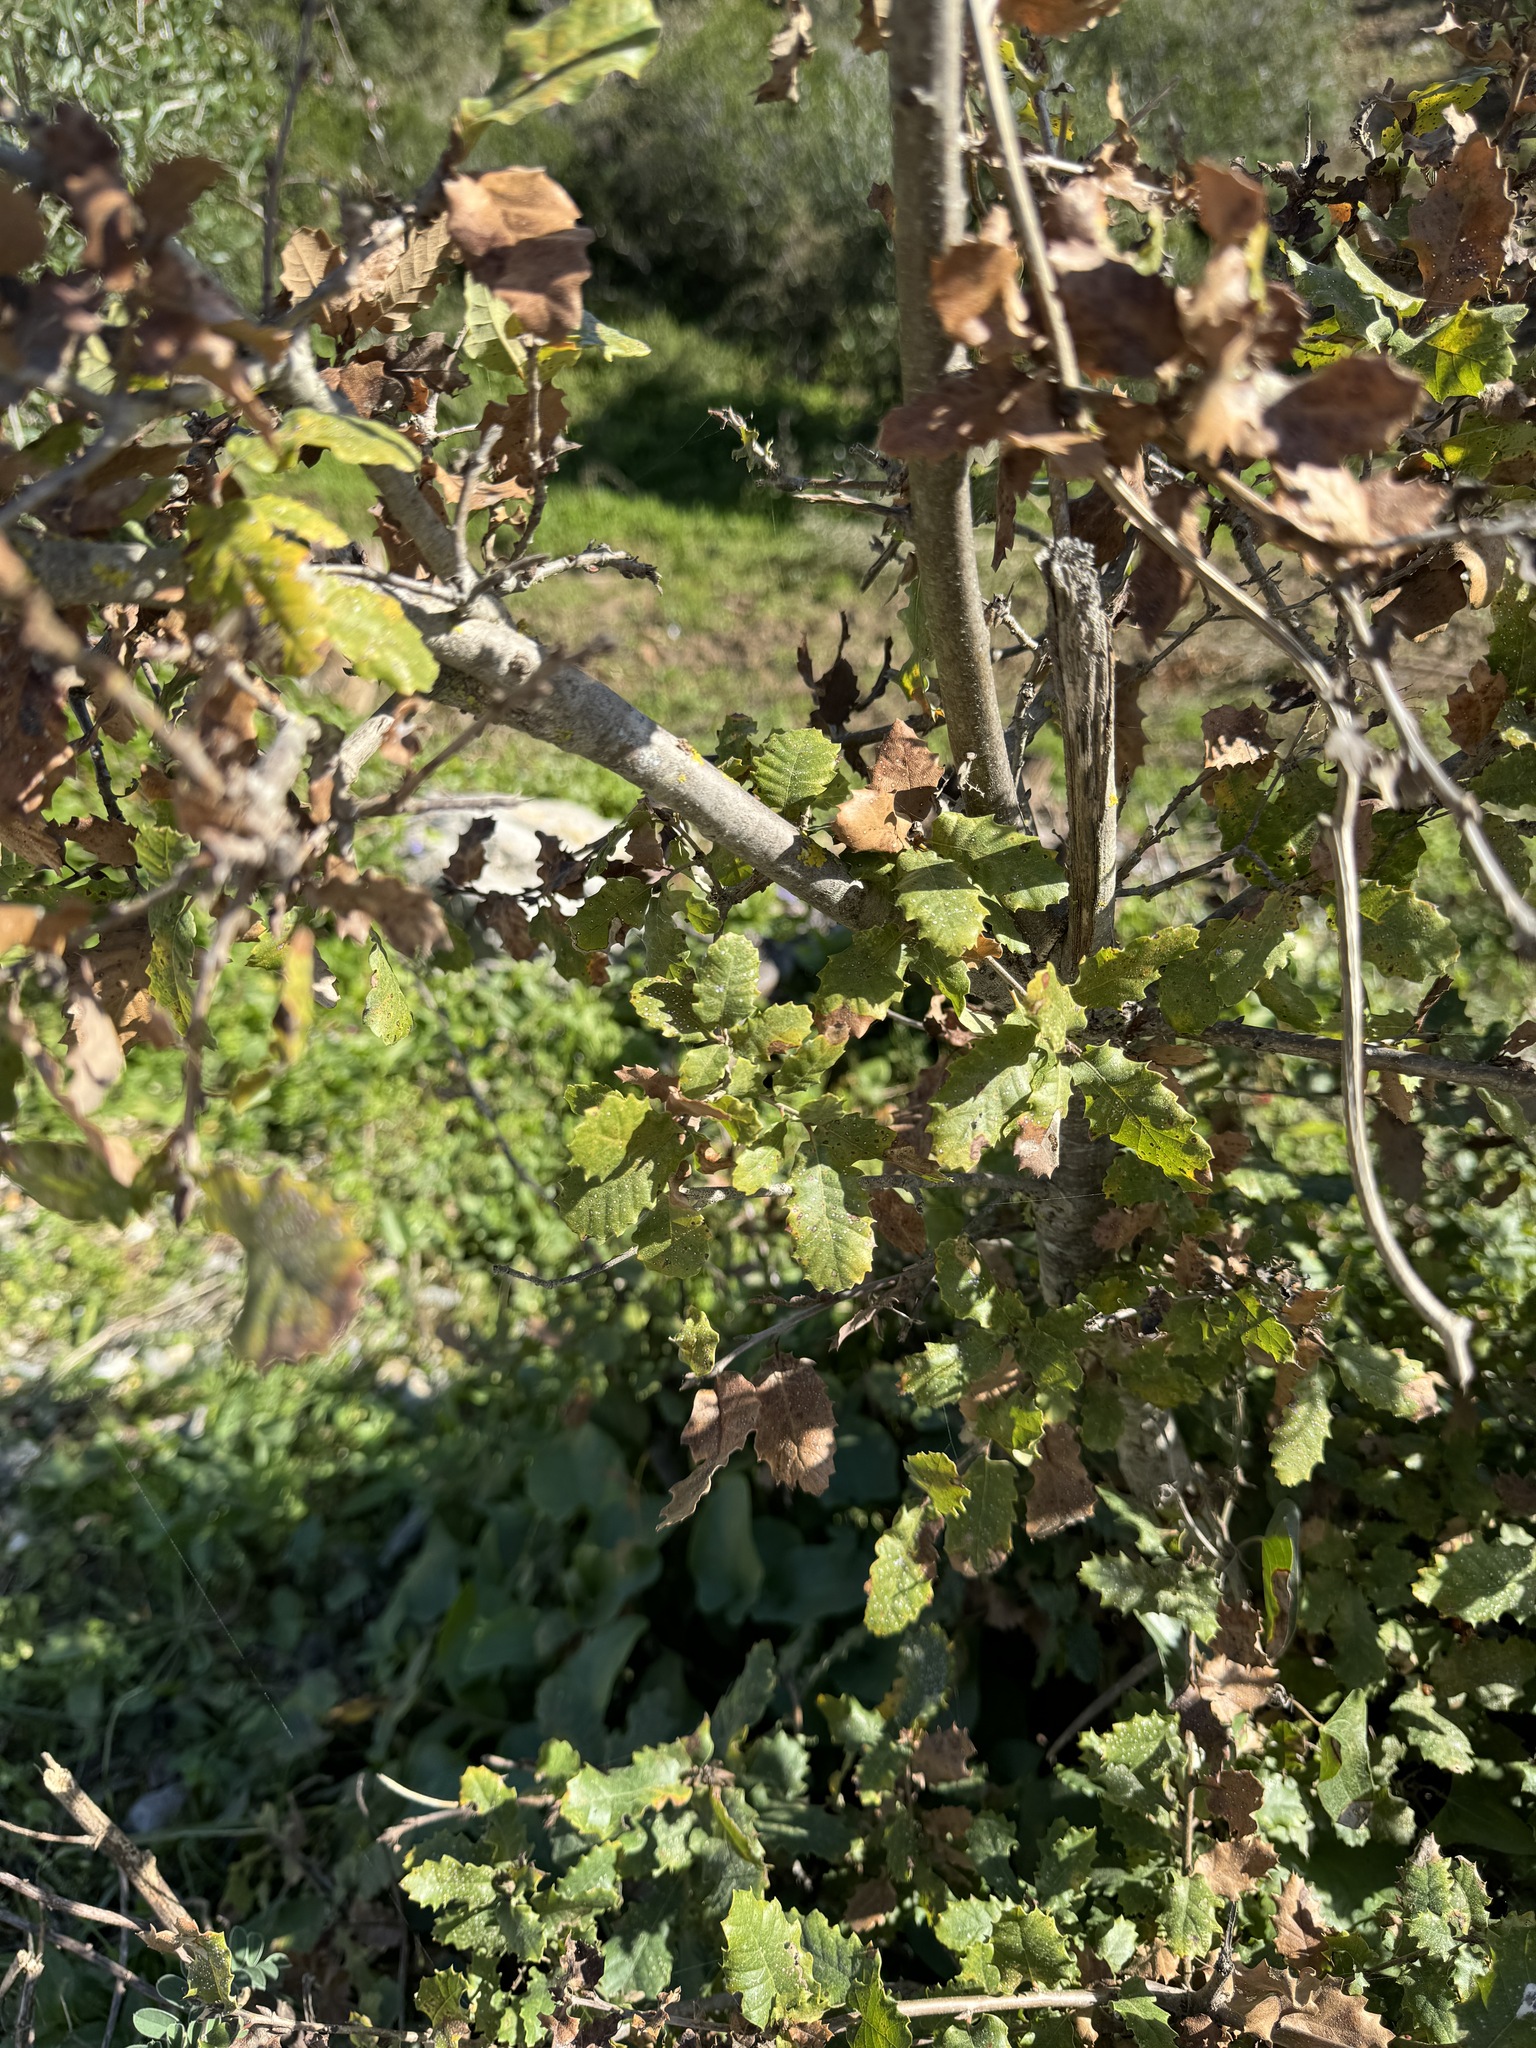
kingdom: Plantae
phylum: Tracheophyta
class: Magnoliopsida
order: Fagales
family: Fagaceae
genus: Quercus
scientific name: Quercus faginea
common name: Gall oak tree
